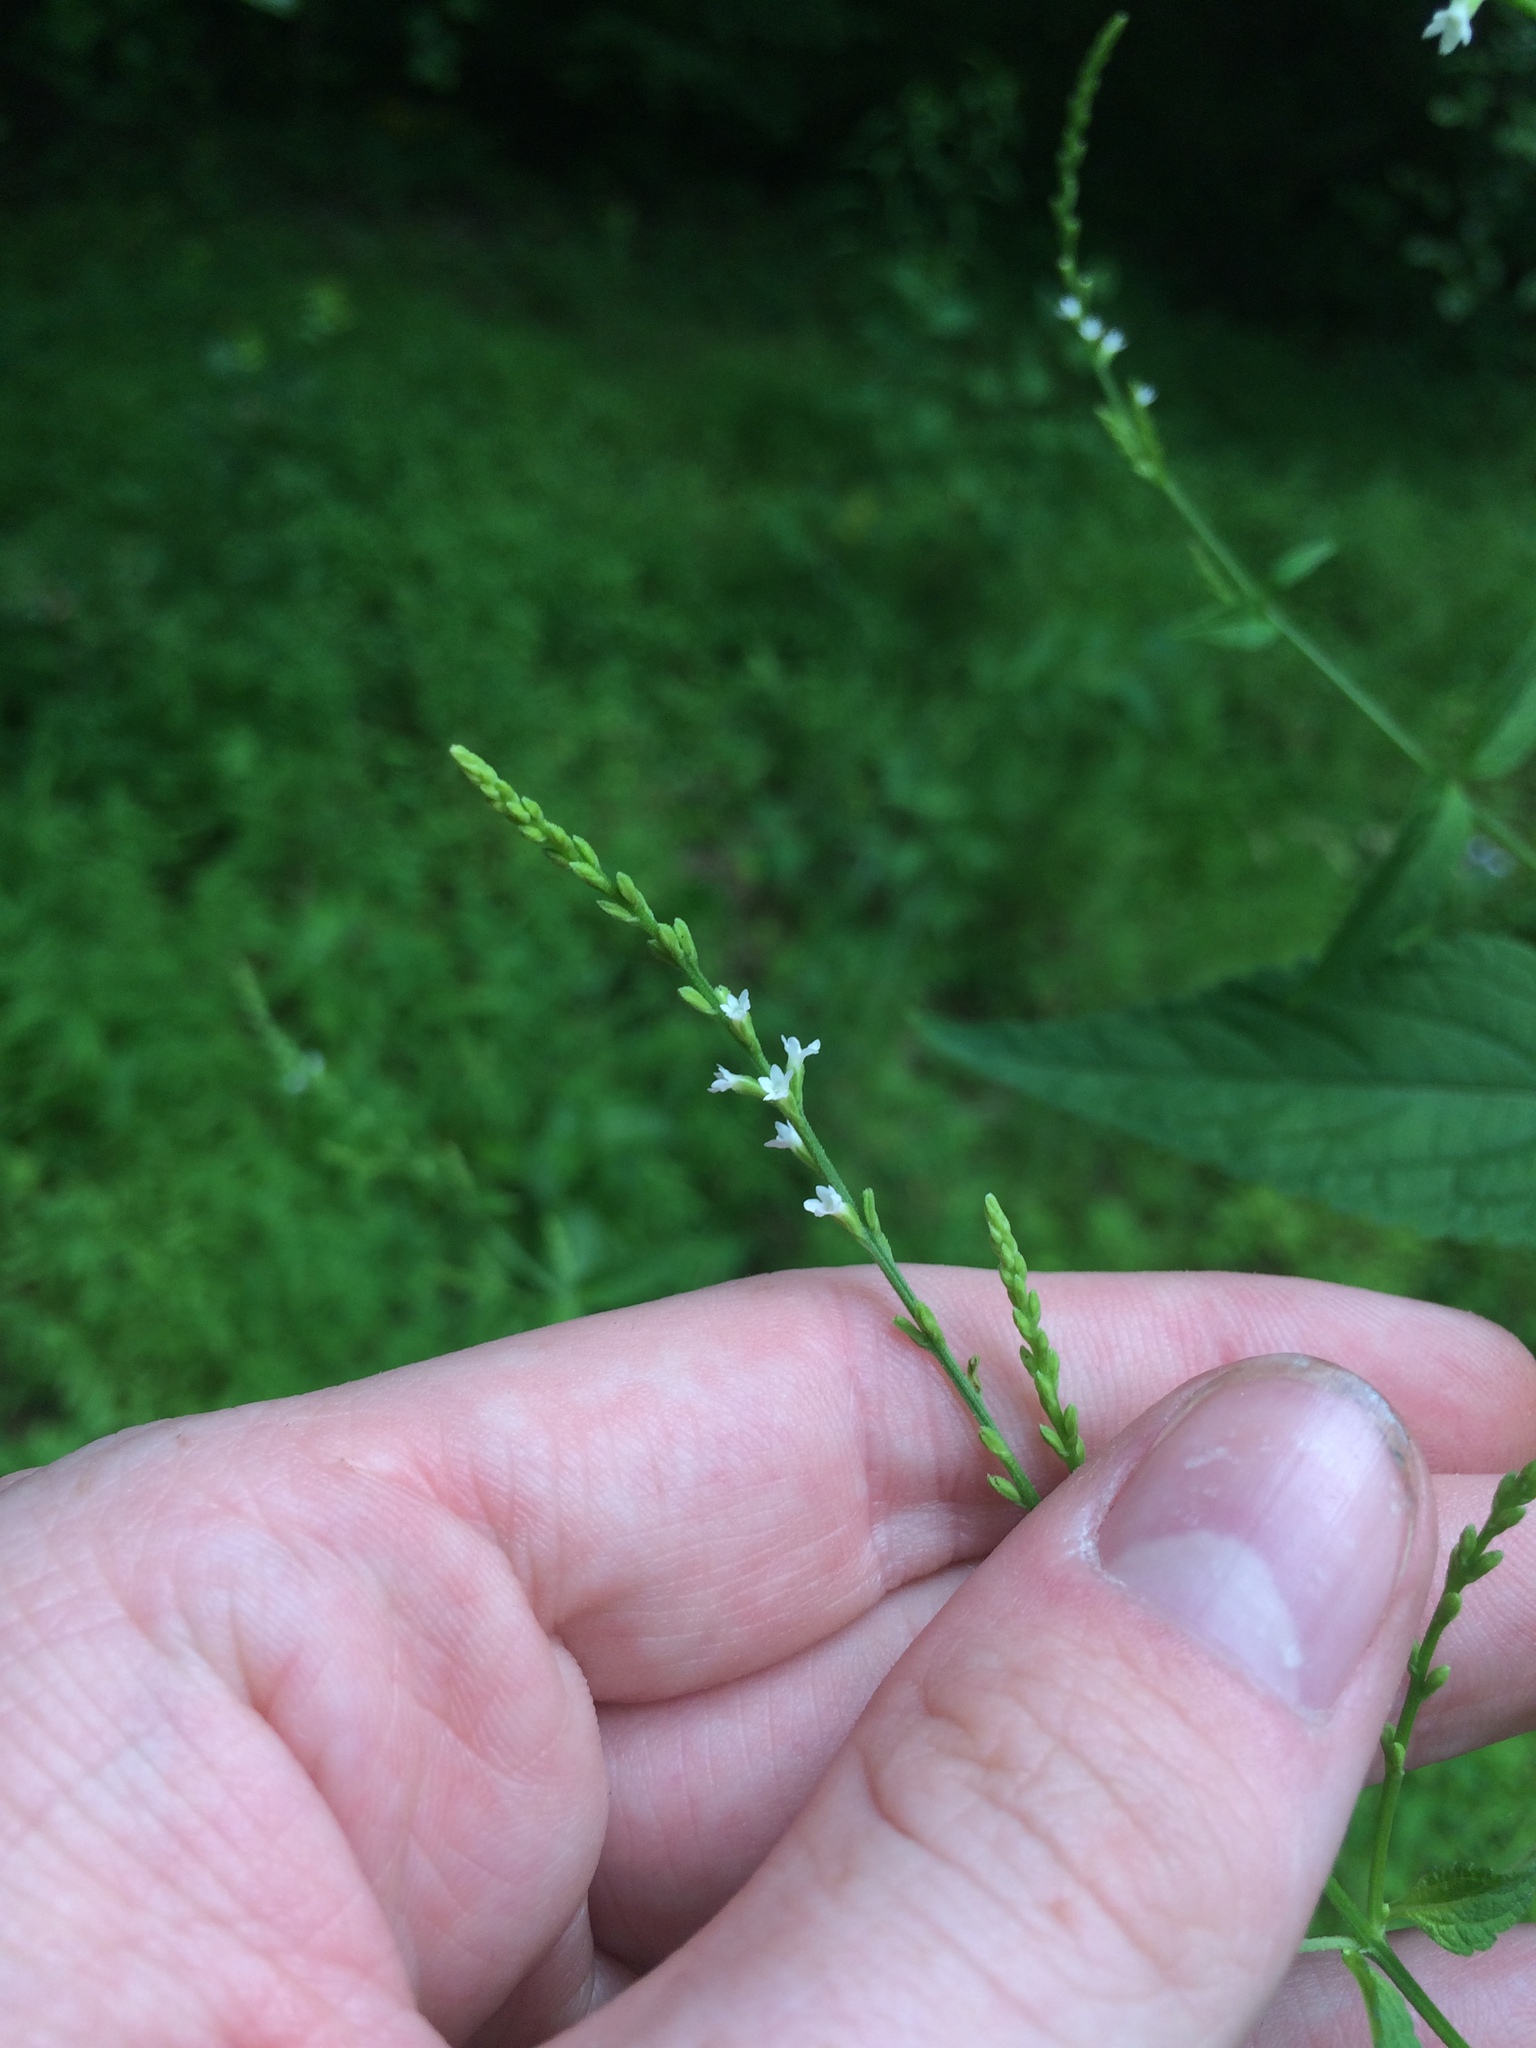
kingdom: Plantae
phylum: Tracheophyta
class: Magnoliopsida
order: Lamiales
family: Verbenaceae
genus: Verbena
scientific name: Verbena urticifolia
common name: Nettle-leaved vervain
